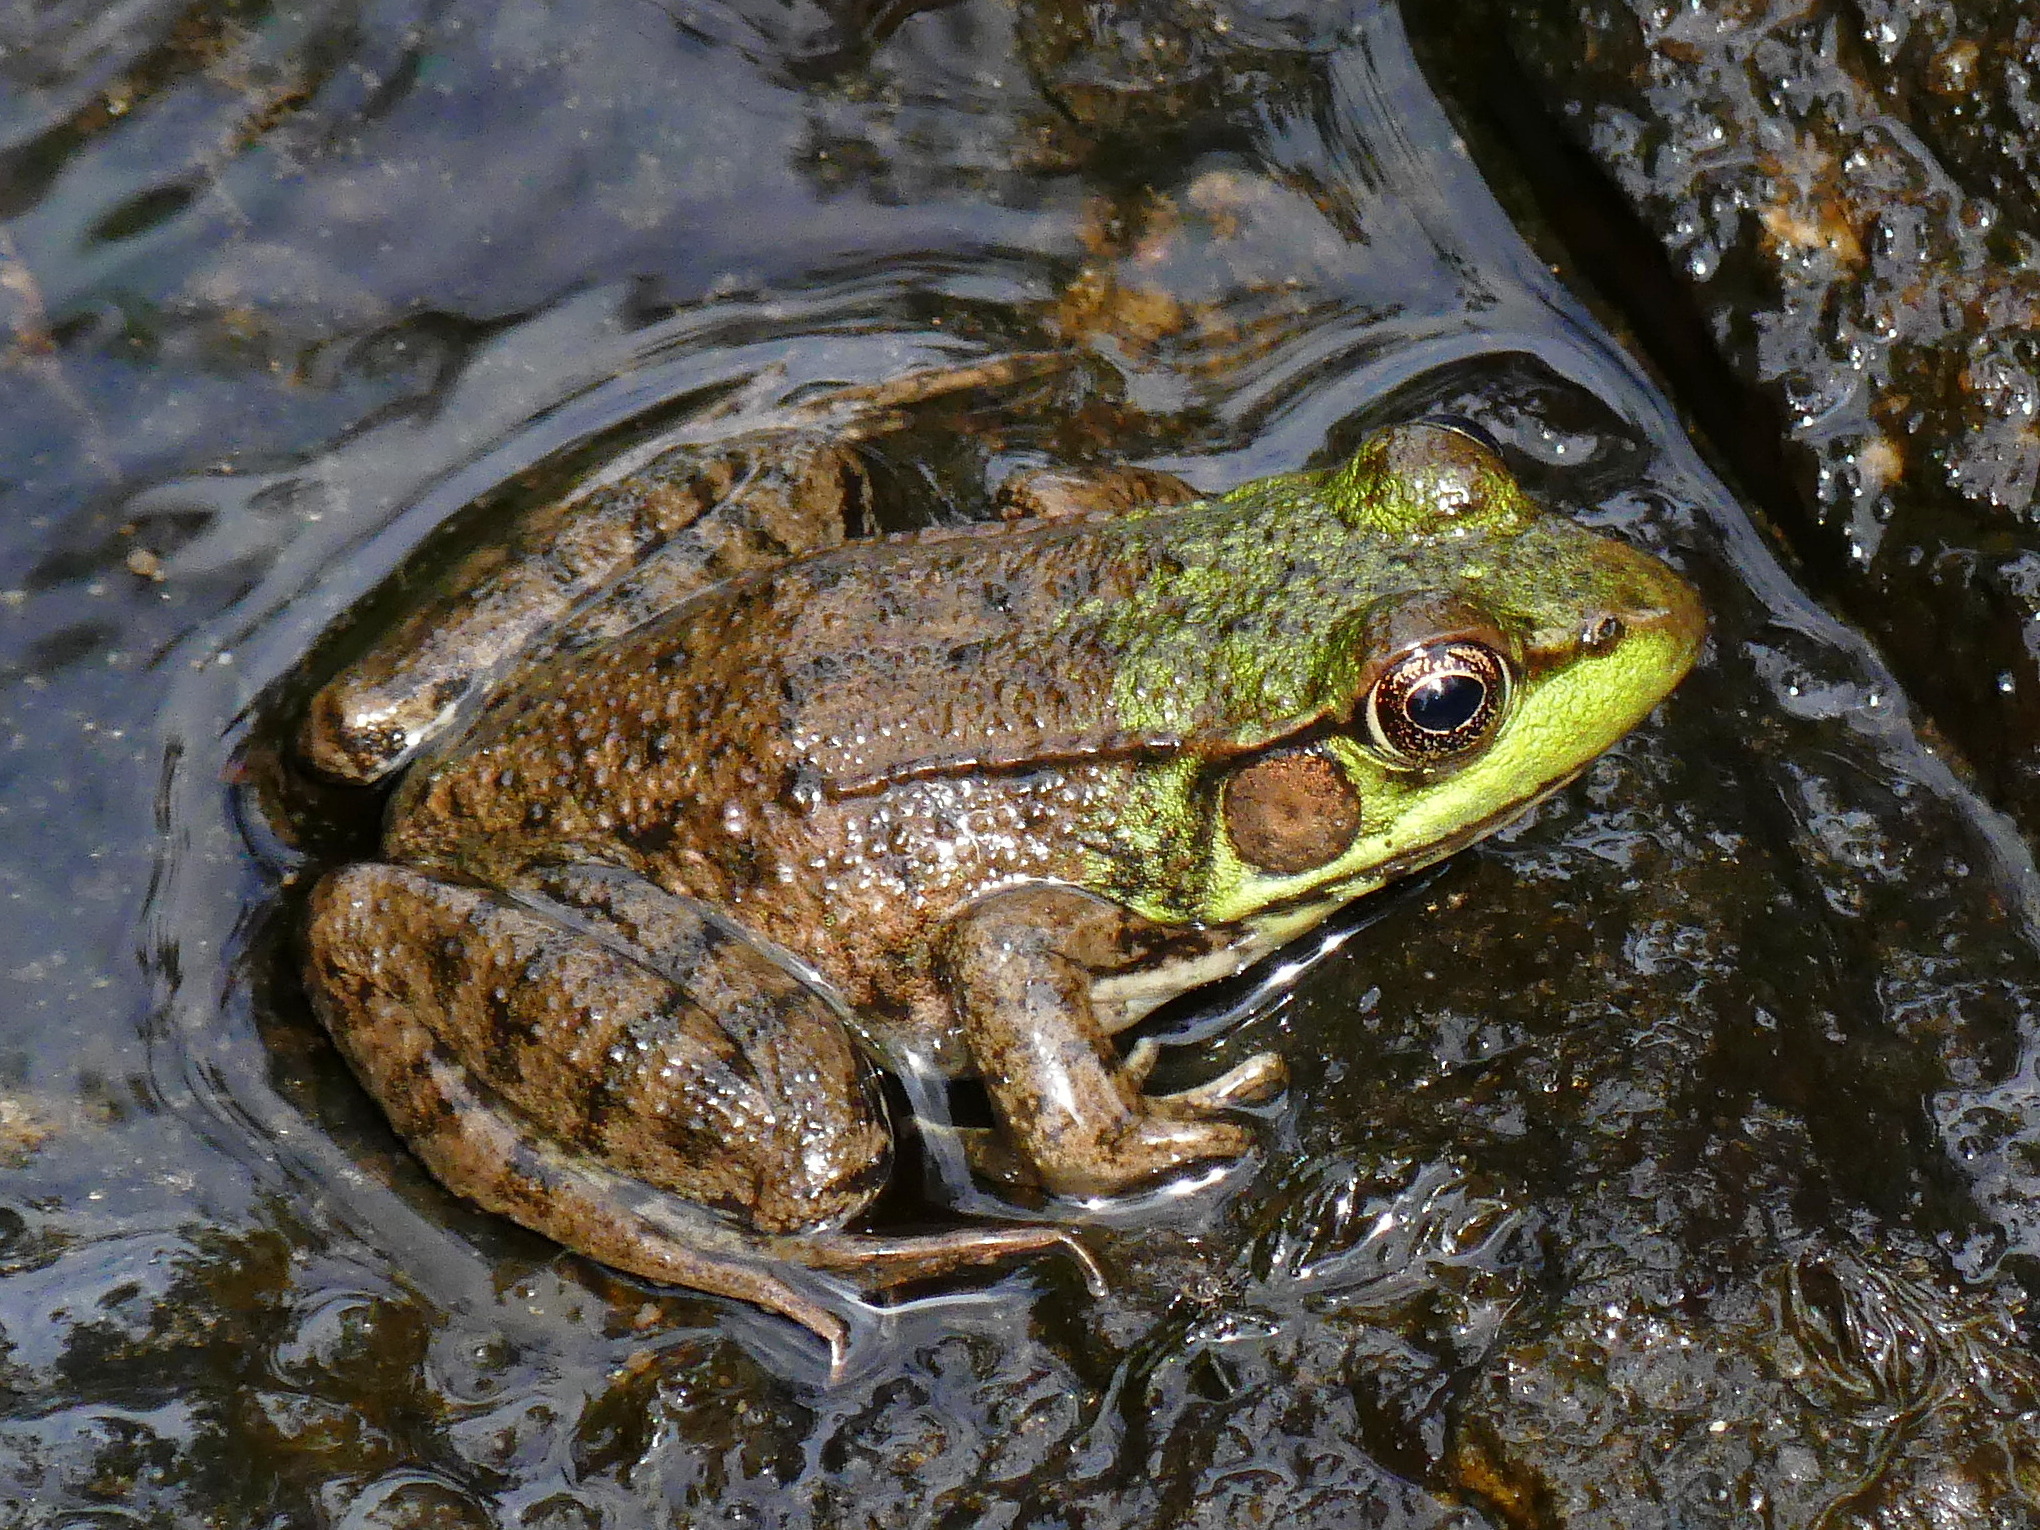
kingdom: Animalia
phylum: Chordata
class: Amphibia
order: Anura
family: Ranidae
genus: Lithobates
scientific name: Lithobates clamitans
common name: Green frog
